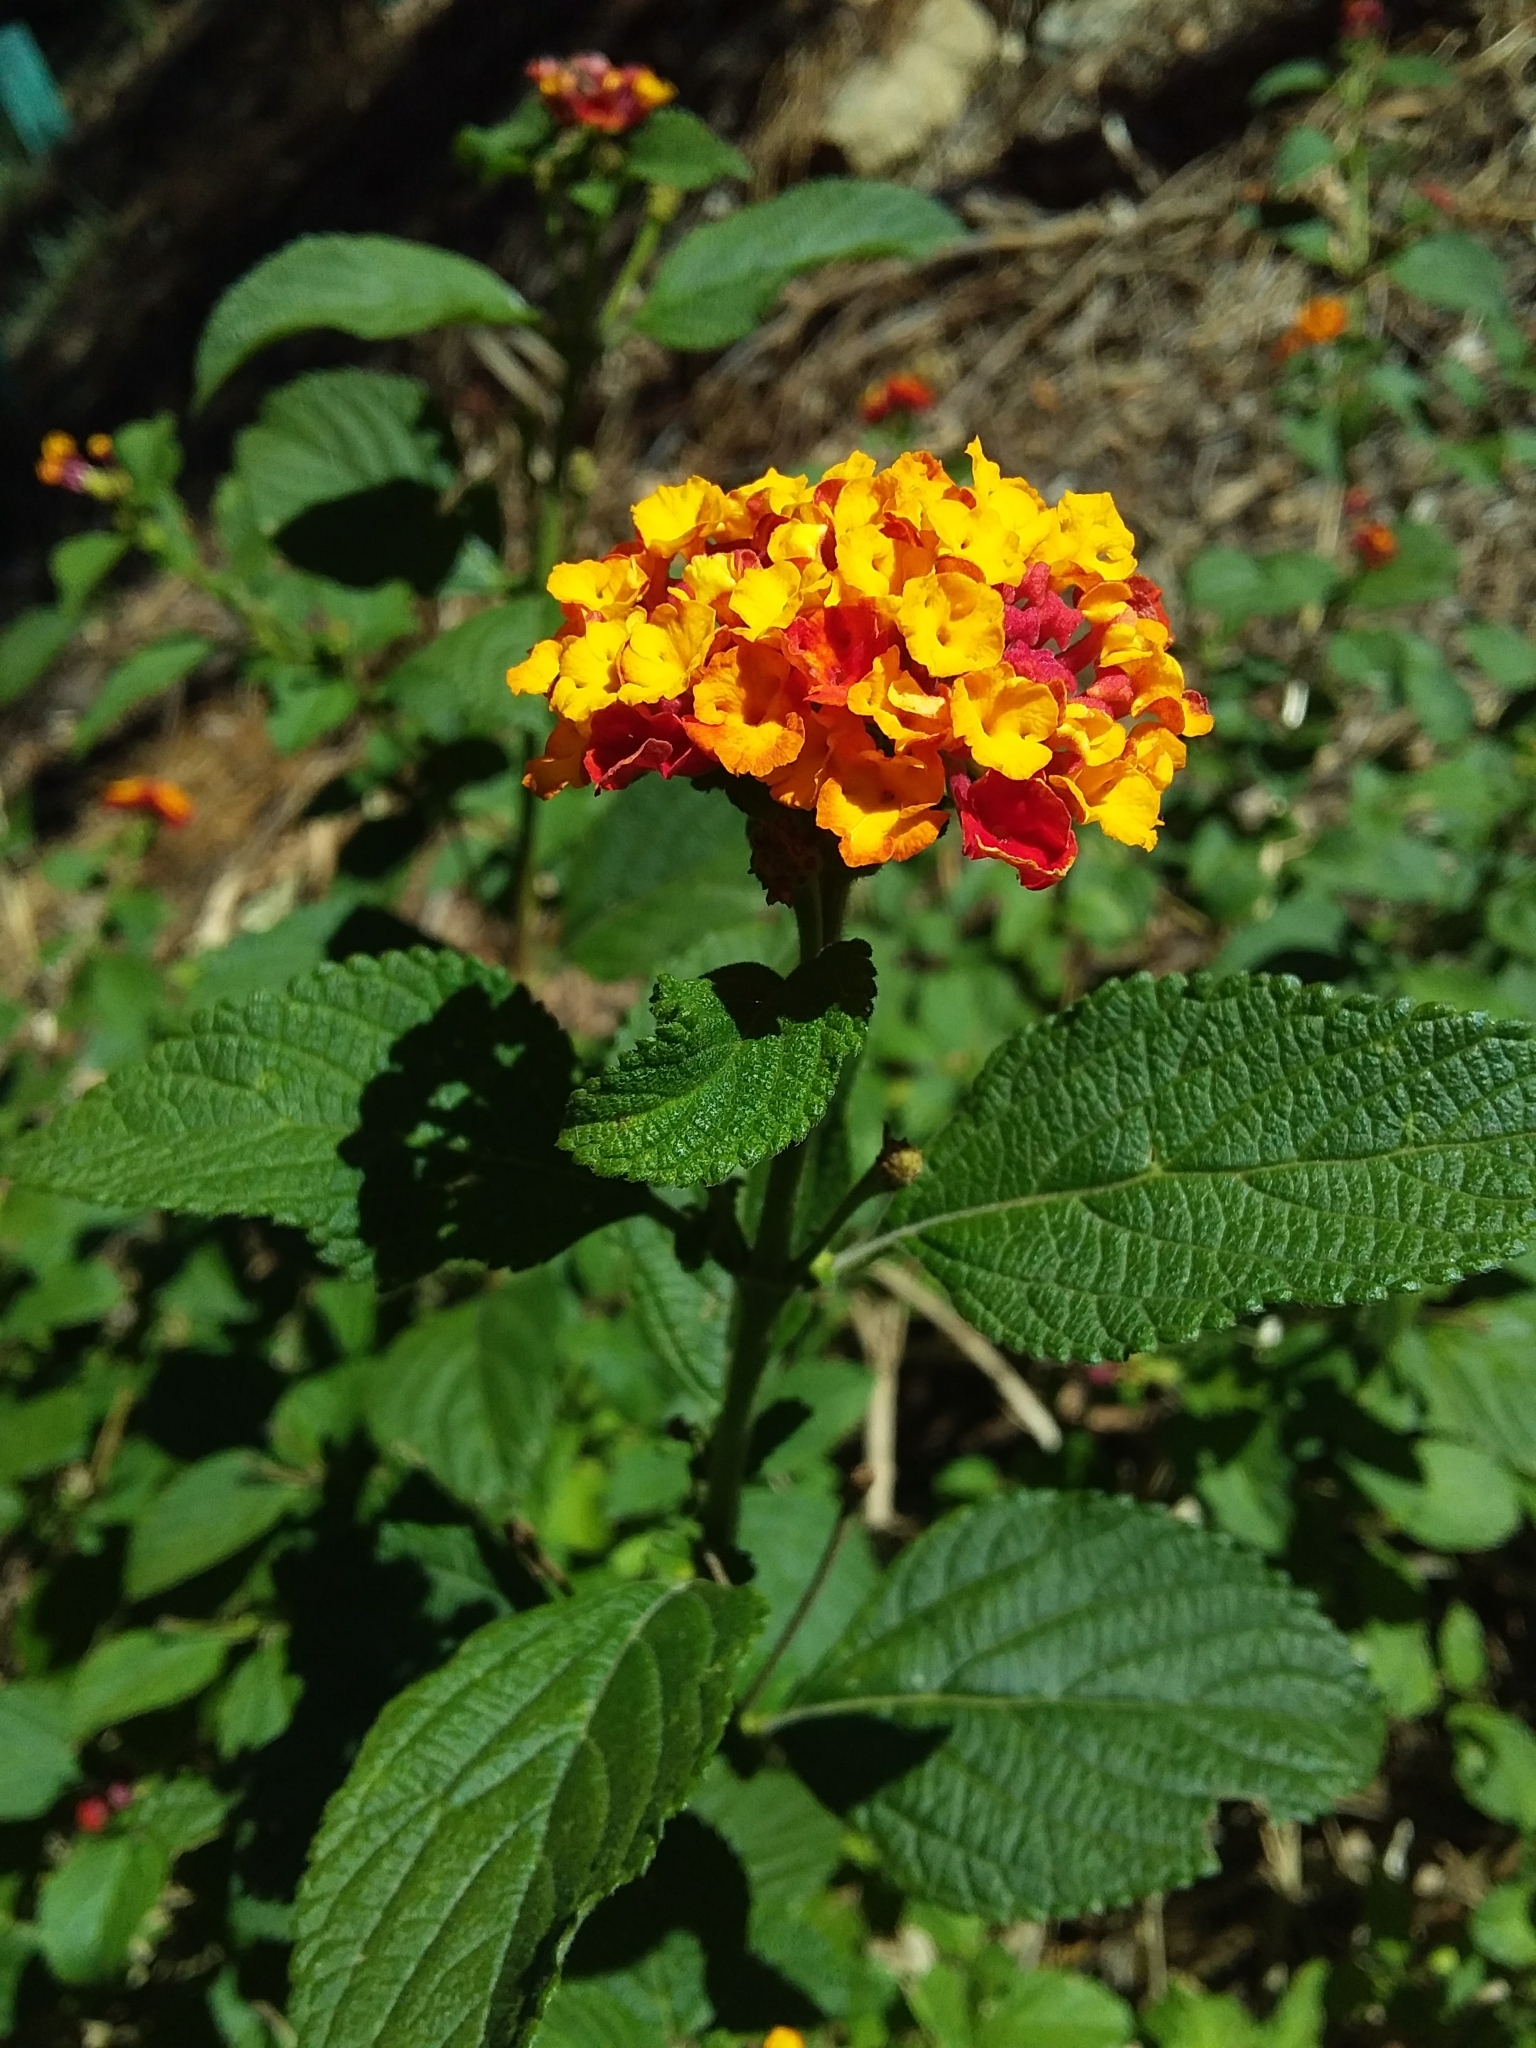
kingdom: Plantae
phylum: Tracheophyta
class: Magnoliopsida
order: Lamiales
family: Verbenaceae
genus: Lantana
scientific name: Lantana camara
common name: Lantana
